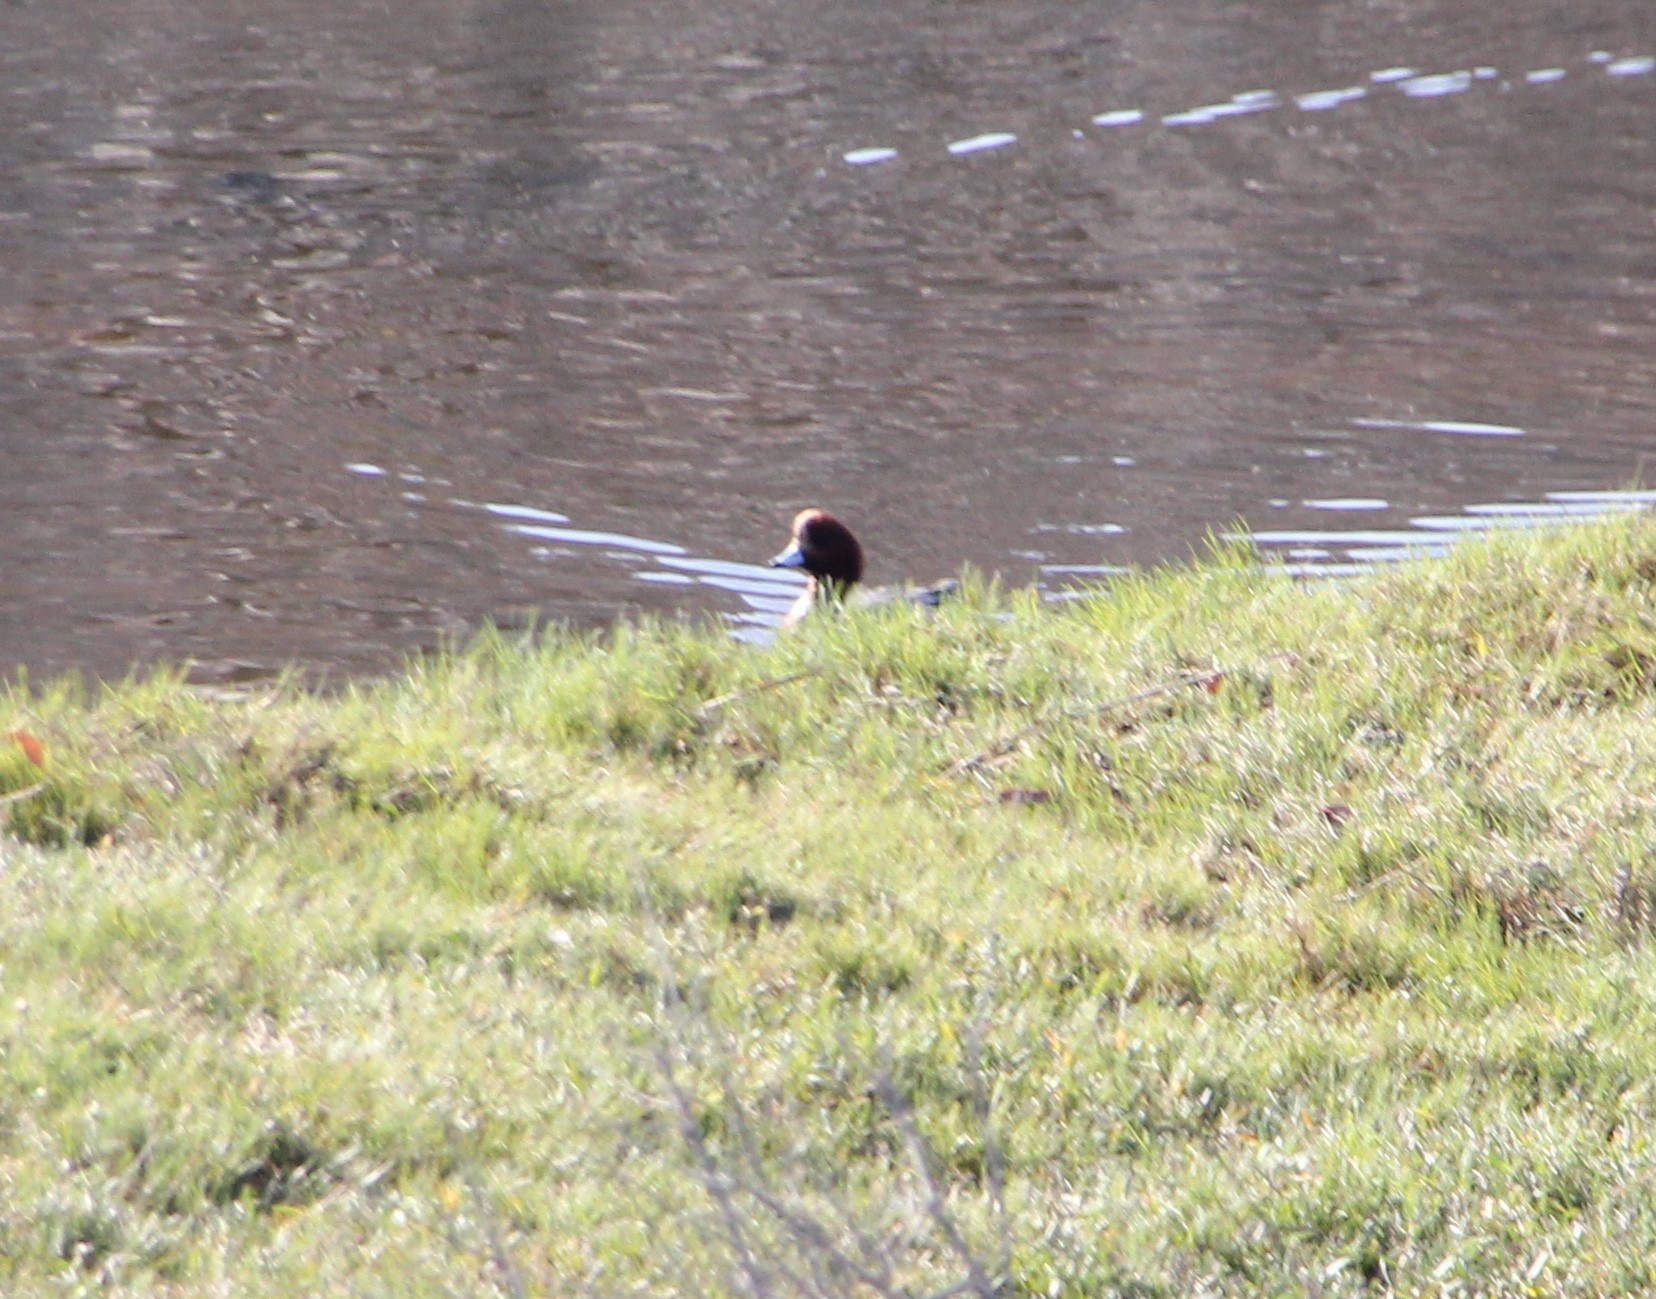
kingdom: Animalia
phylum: Chordata
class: Aves
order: Anseriformes
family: Anatidae
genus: Mareca
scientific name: Mareca penelope
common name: Eurasian wigeon
